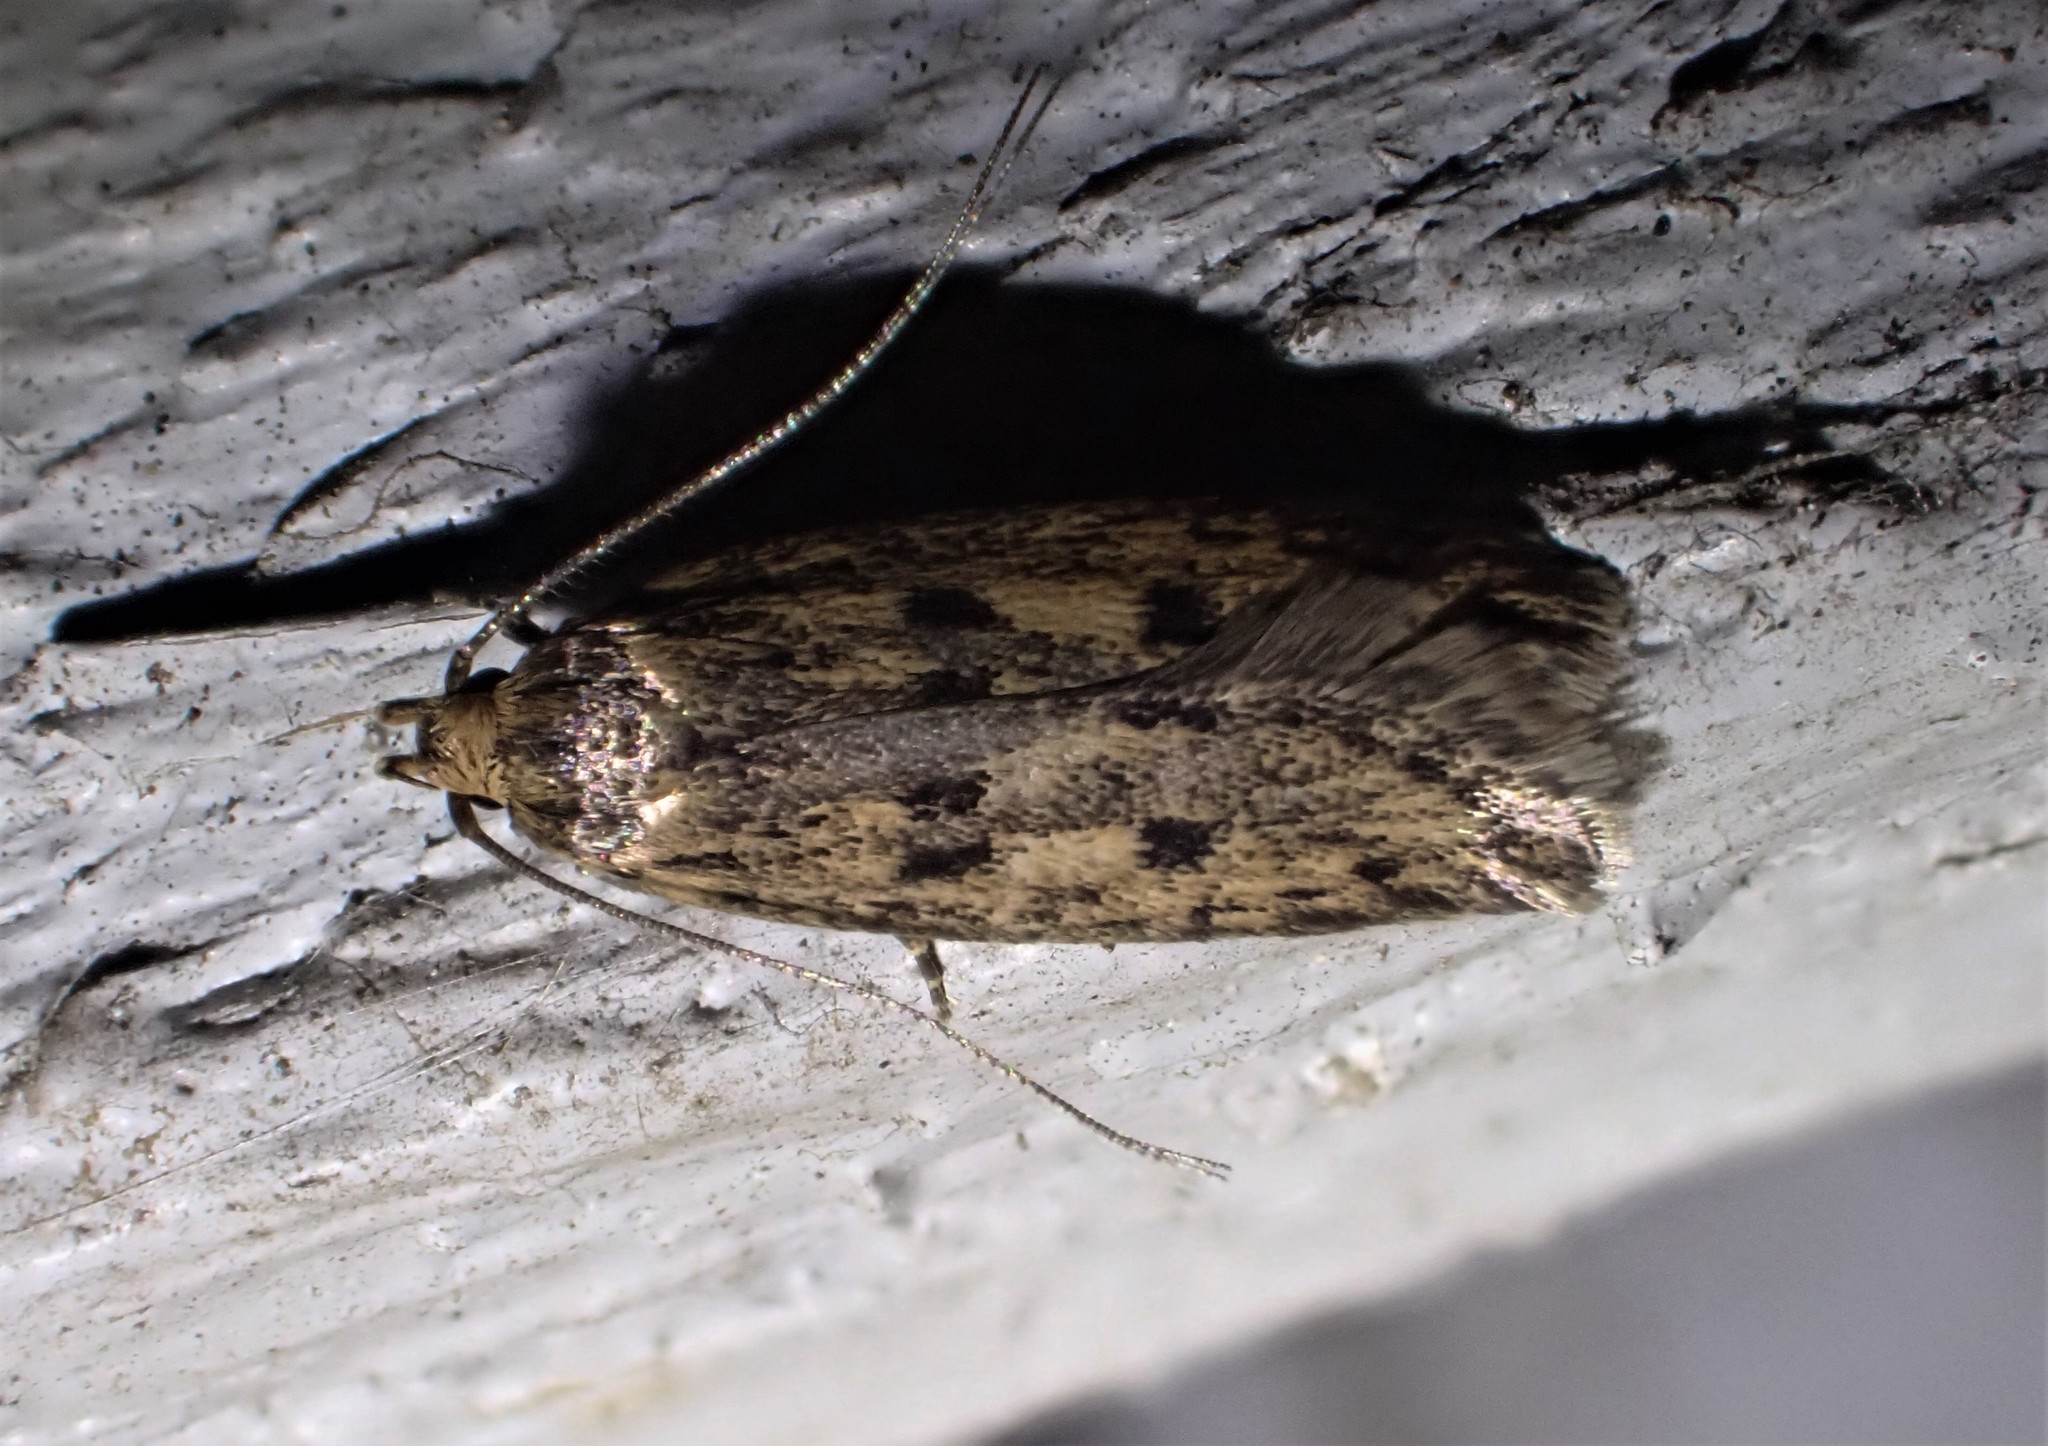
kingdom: Animalia
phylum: Arthropoda
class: Insecta
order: Lepidoptera
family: Oecophoridae
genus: Hofmannophila
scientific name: Hofmannophila pseudospretella
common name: Brown house moth
